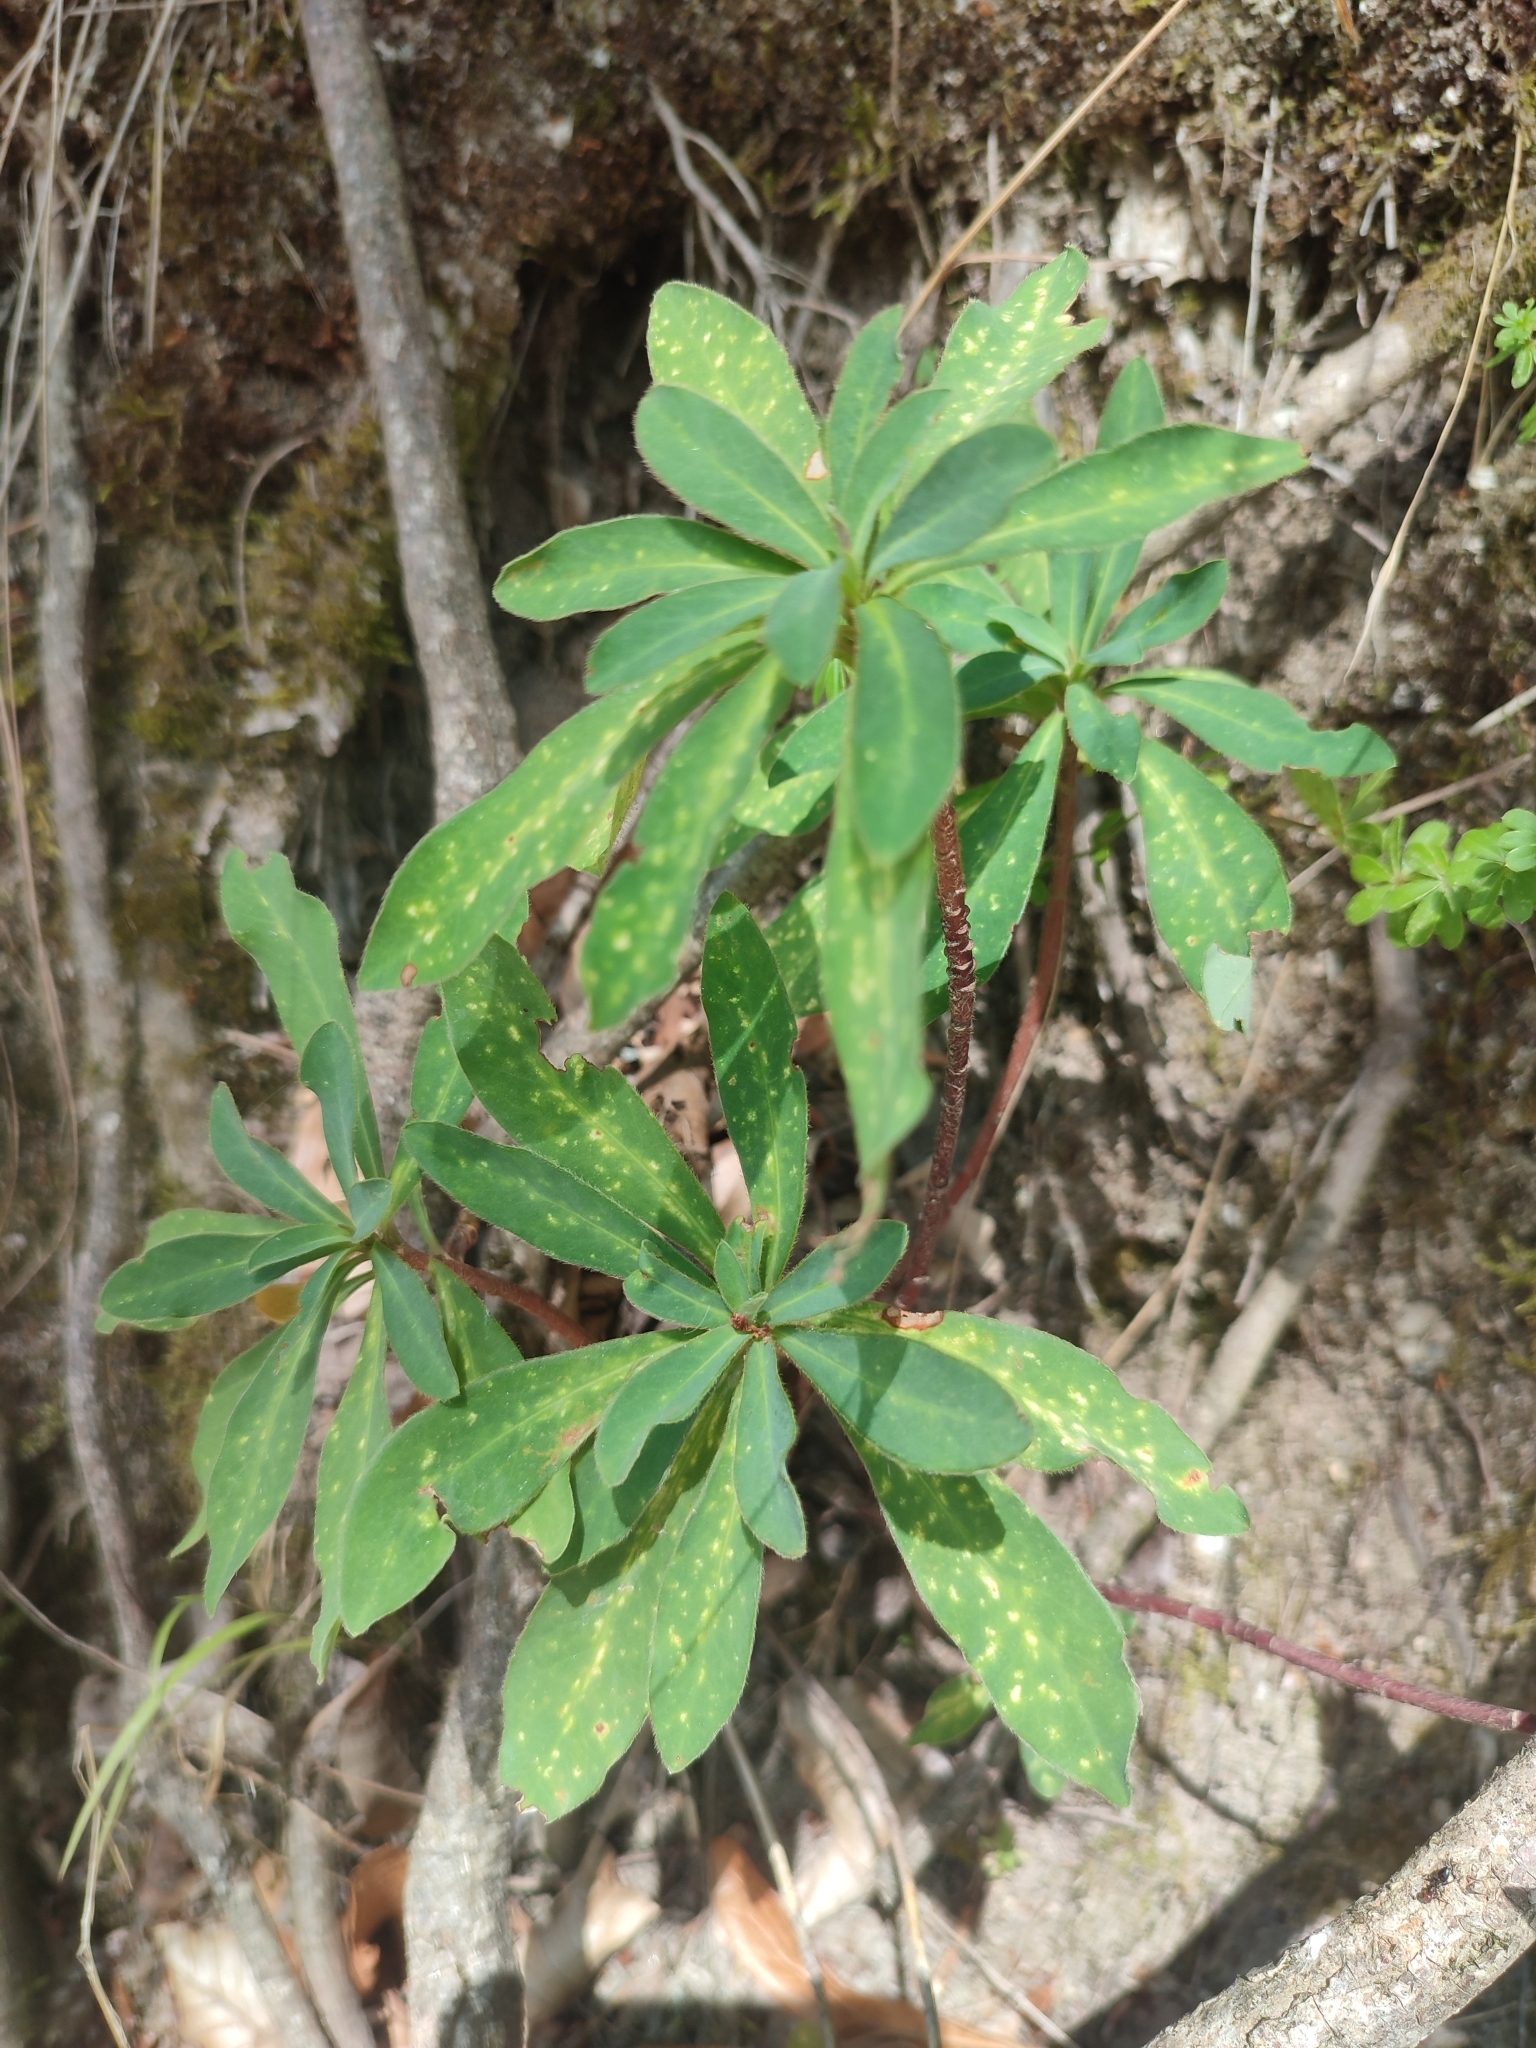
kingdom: Plantae
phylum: Tracheophyta
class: Magnoliopsida
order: Malpighiales
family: Euphorbiaceae
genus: Euphorbia
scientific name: Euphorbia amygdaloides
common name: Wood spurge
